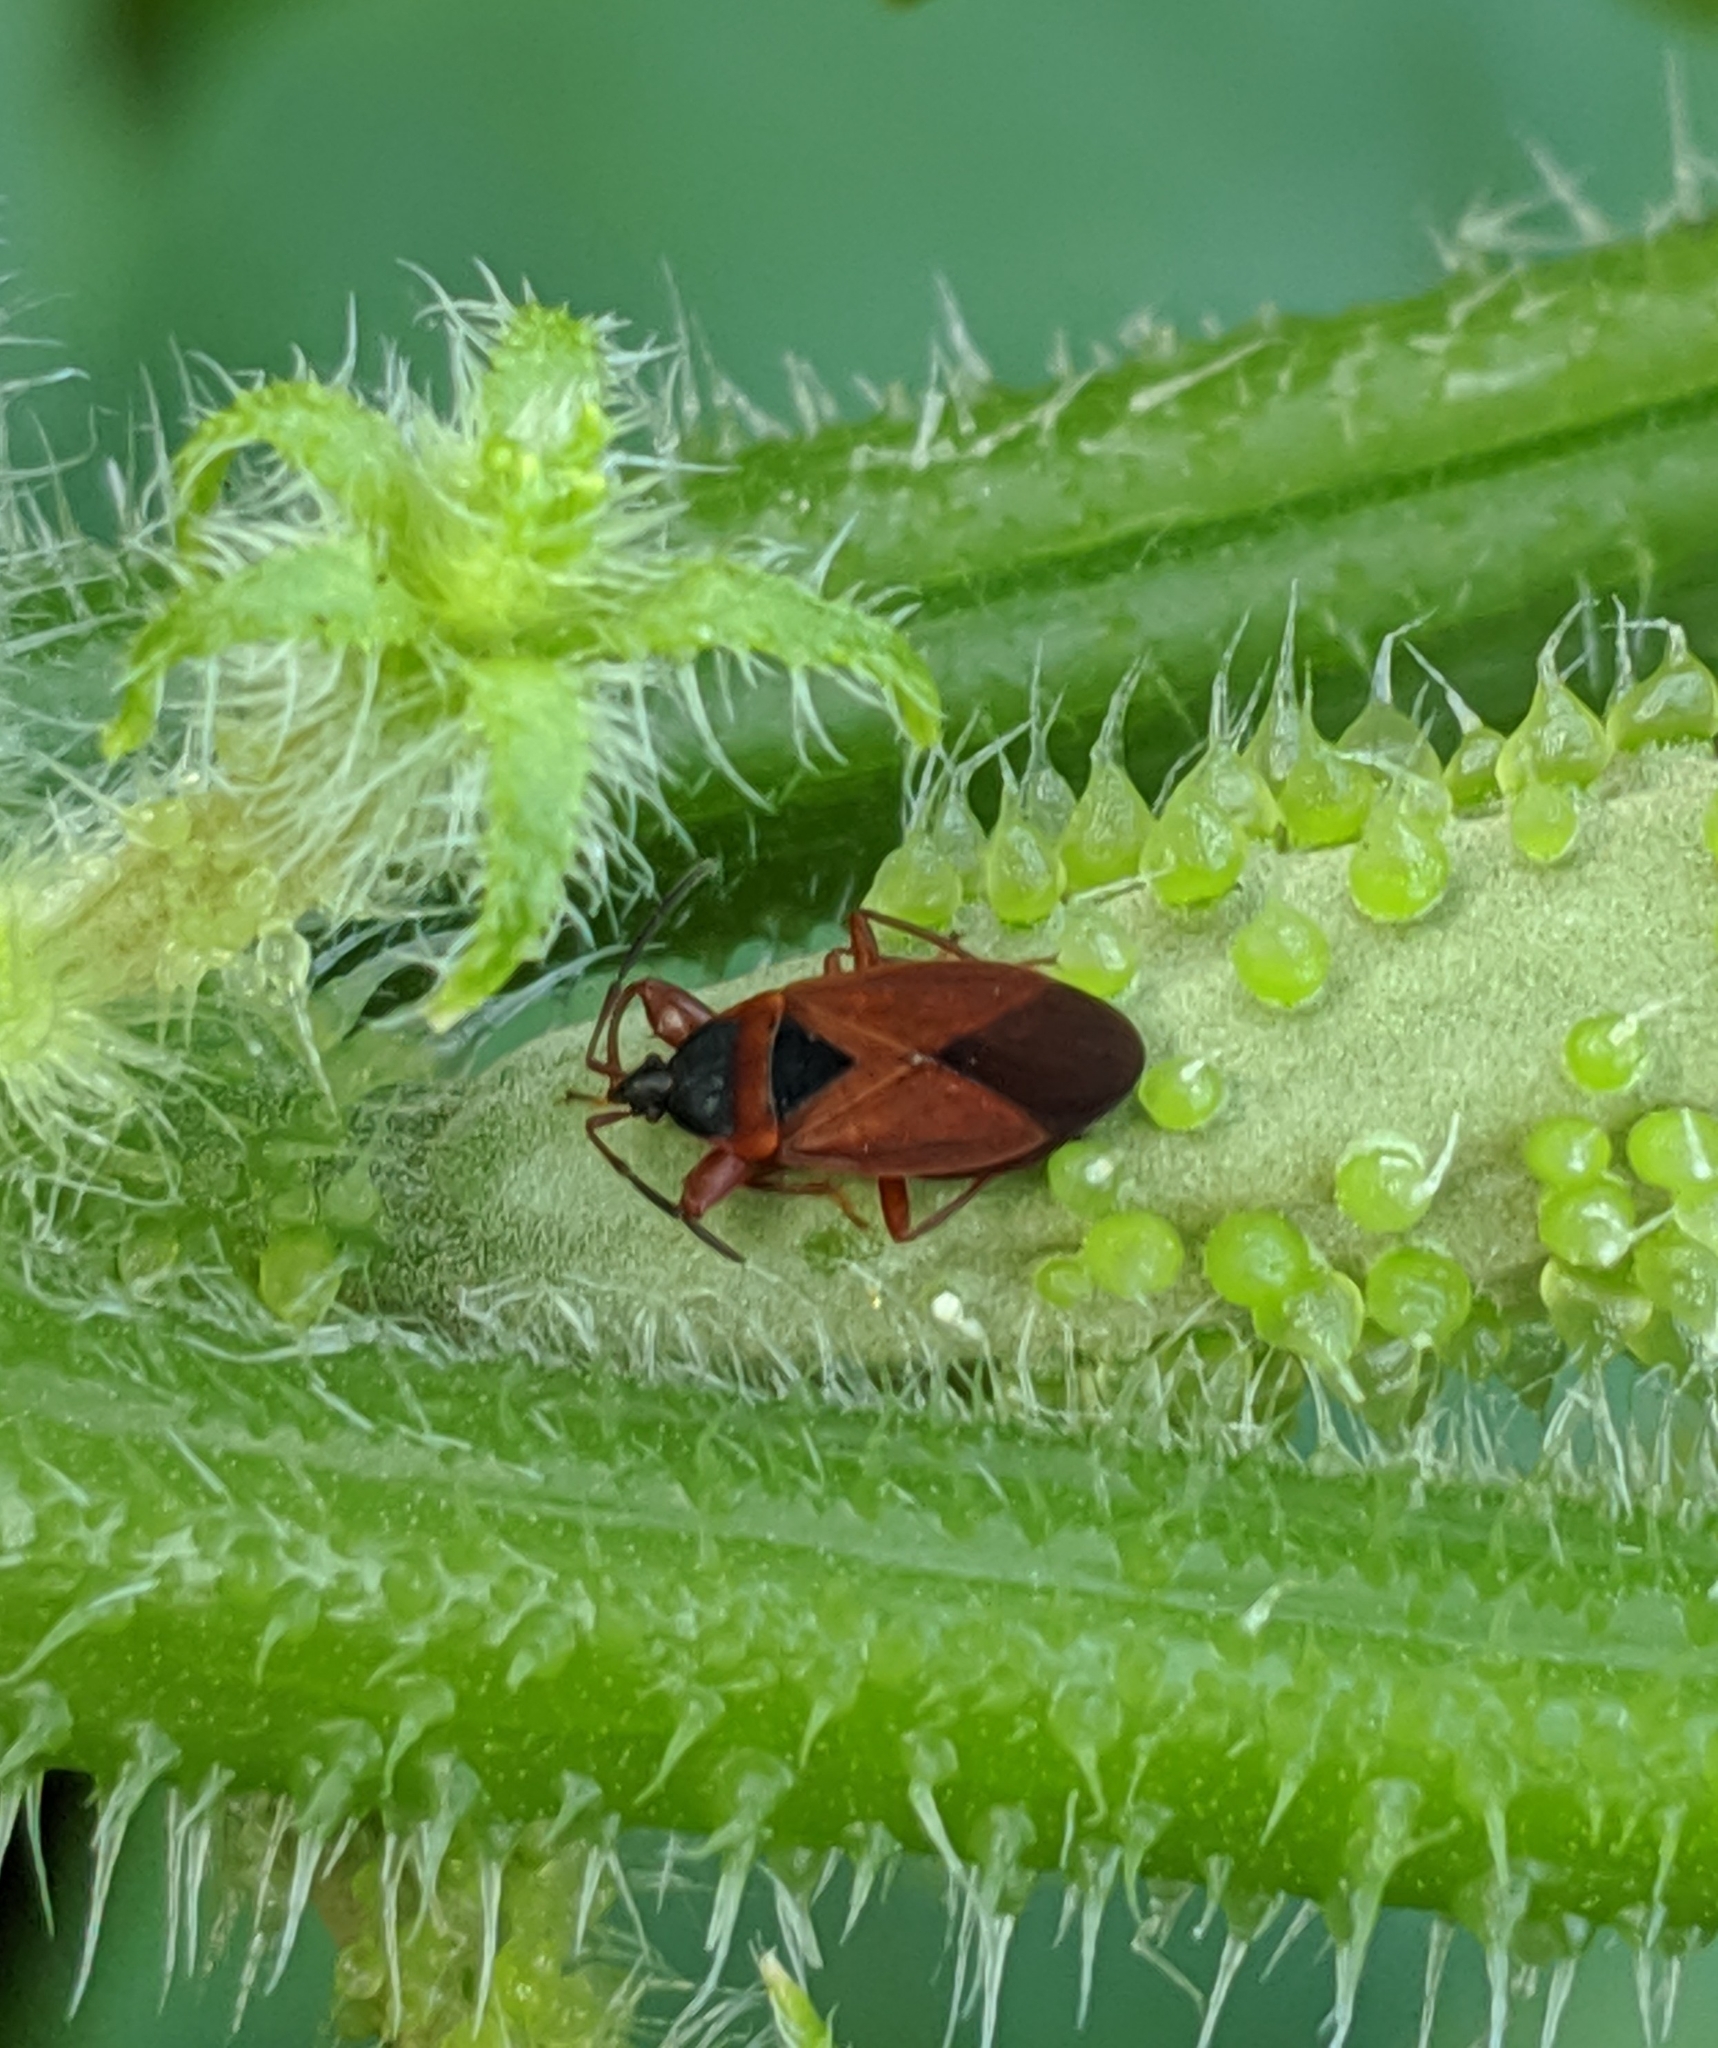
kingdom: Animalia
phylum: Arthropoda
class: Insecta
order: Hemiptera
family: Rhyparochromidae
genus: Gastrodes
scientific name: Gastrodes pacificus
